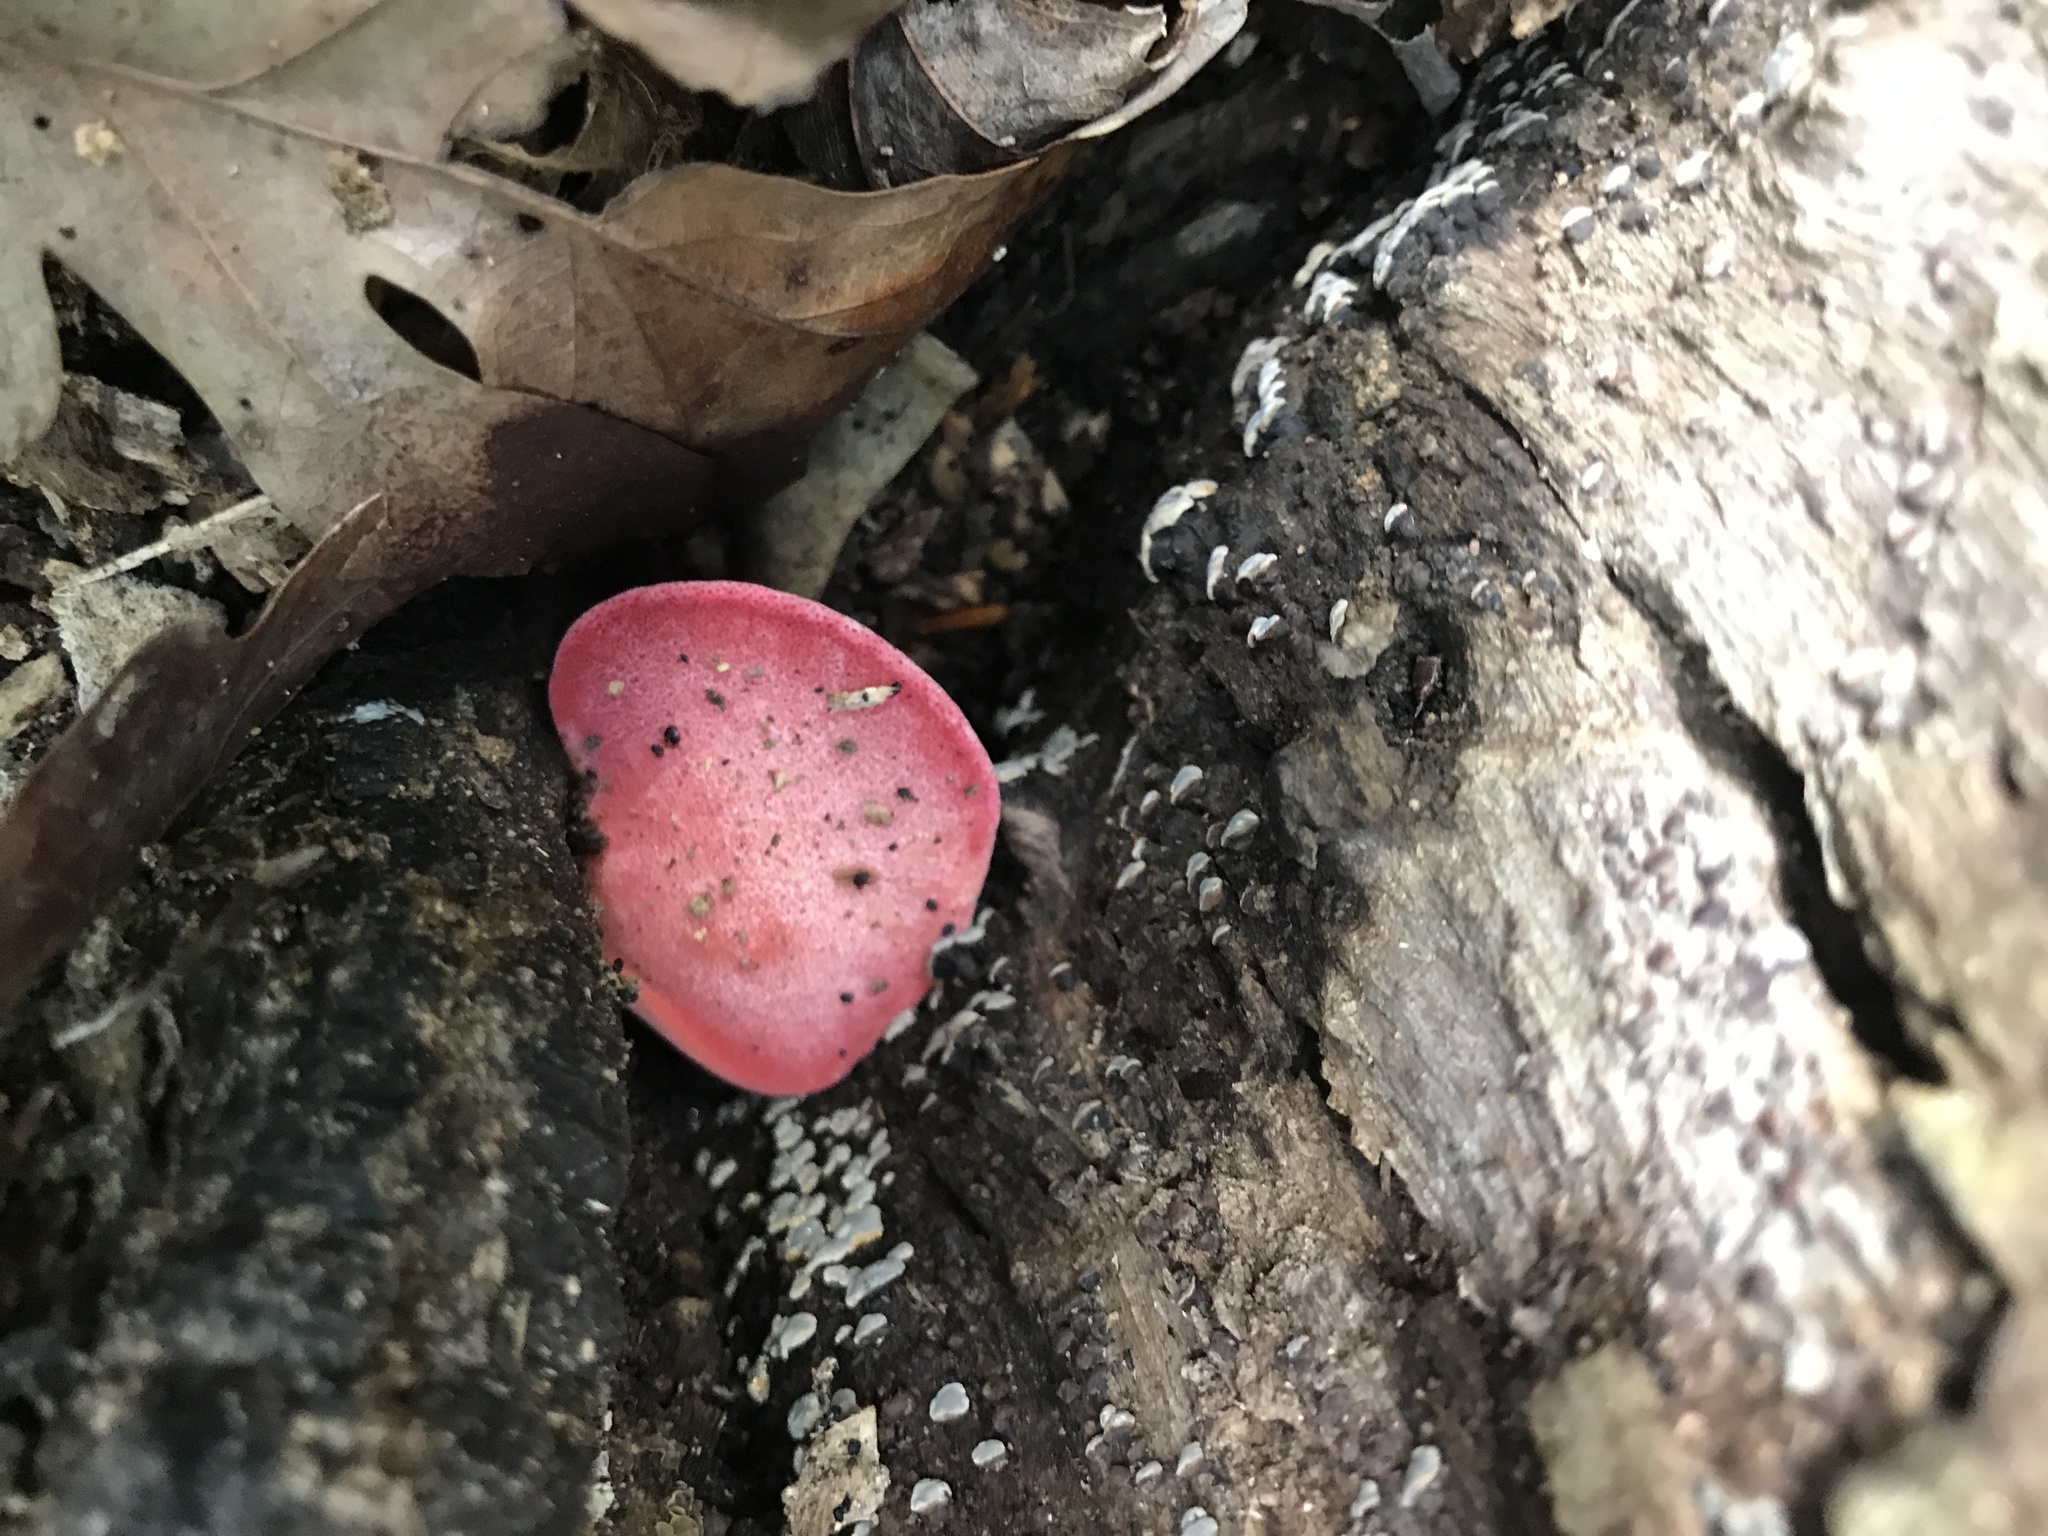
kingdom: Fungi
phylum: Basidiomycota
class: Agaricomycetes
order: Agaricales
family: Fistulinaceae
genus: Fistulina
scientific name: Fistulina hepatica
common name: Beef-steak fungus
